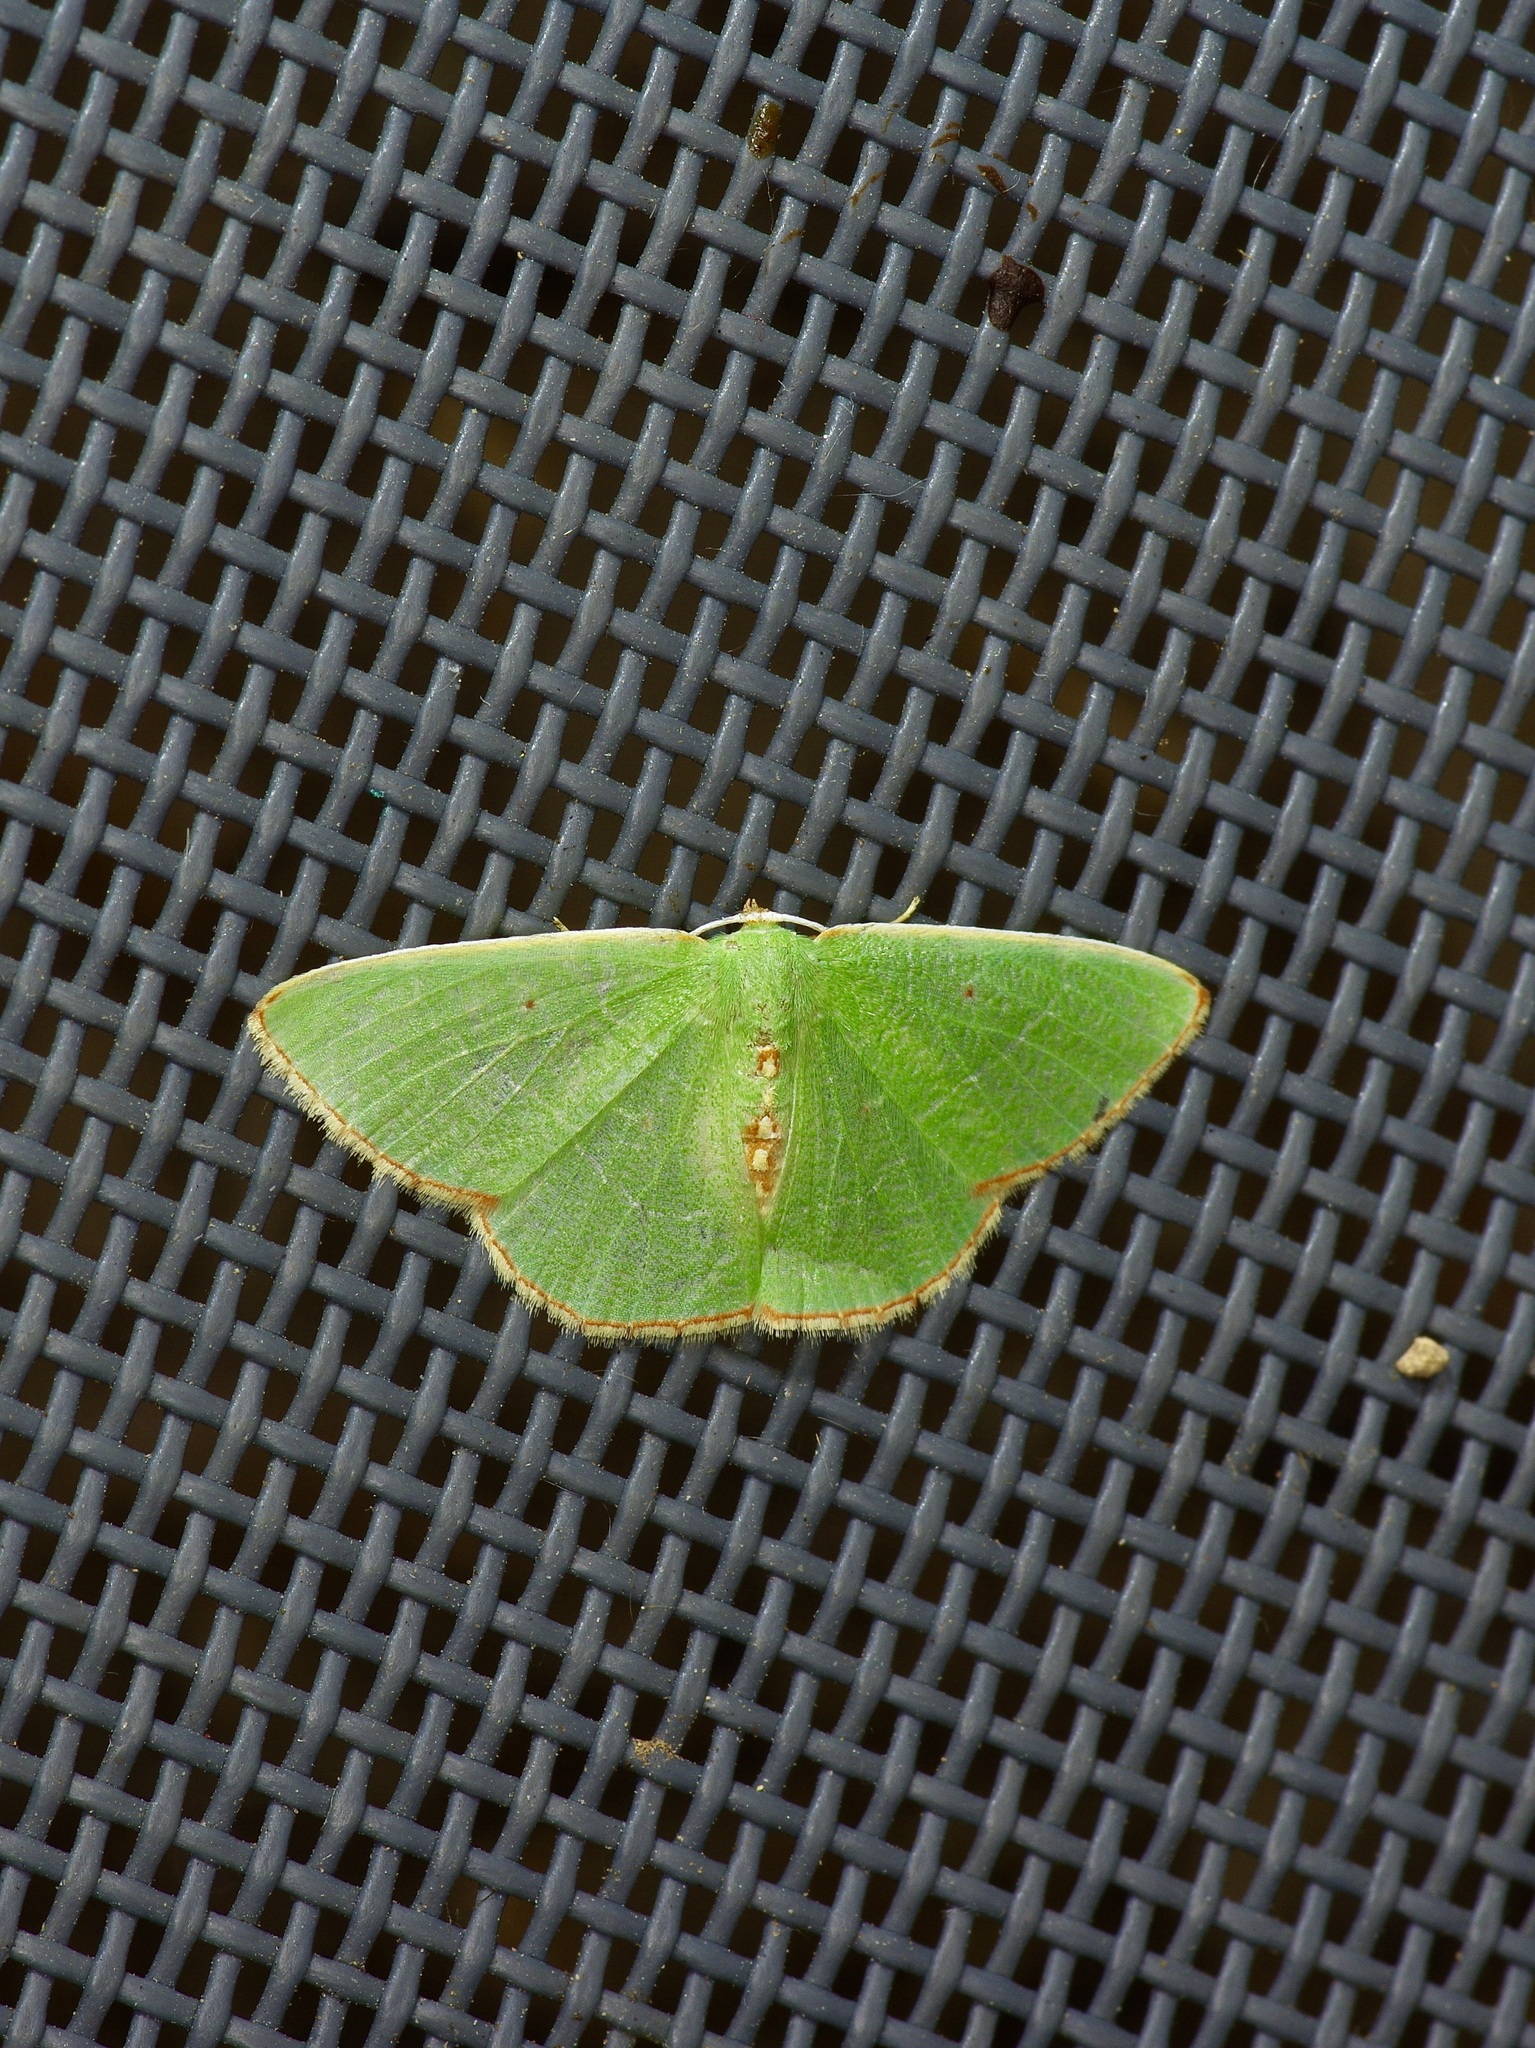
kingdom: Animalia
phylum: Arthropoda
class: Insecta
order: Lepidoptera
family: Geometridae
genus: Nemoria
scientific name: Nemoria lixaria
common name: Red-bordered emerald
